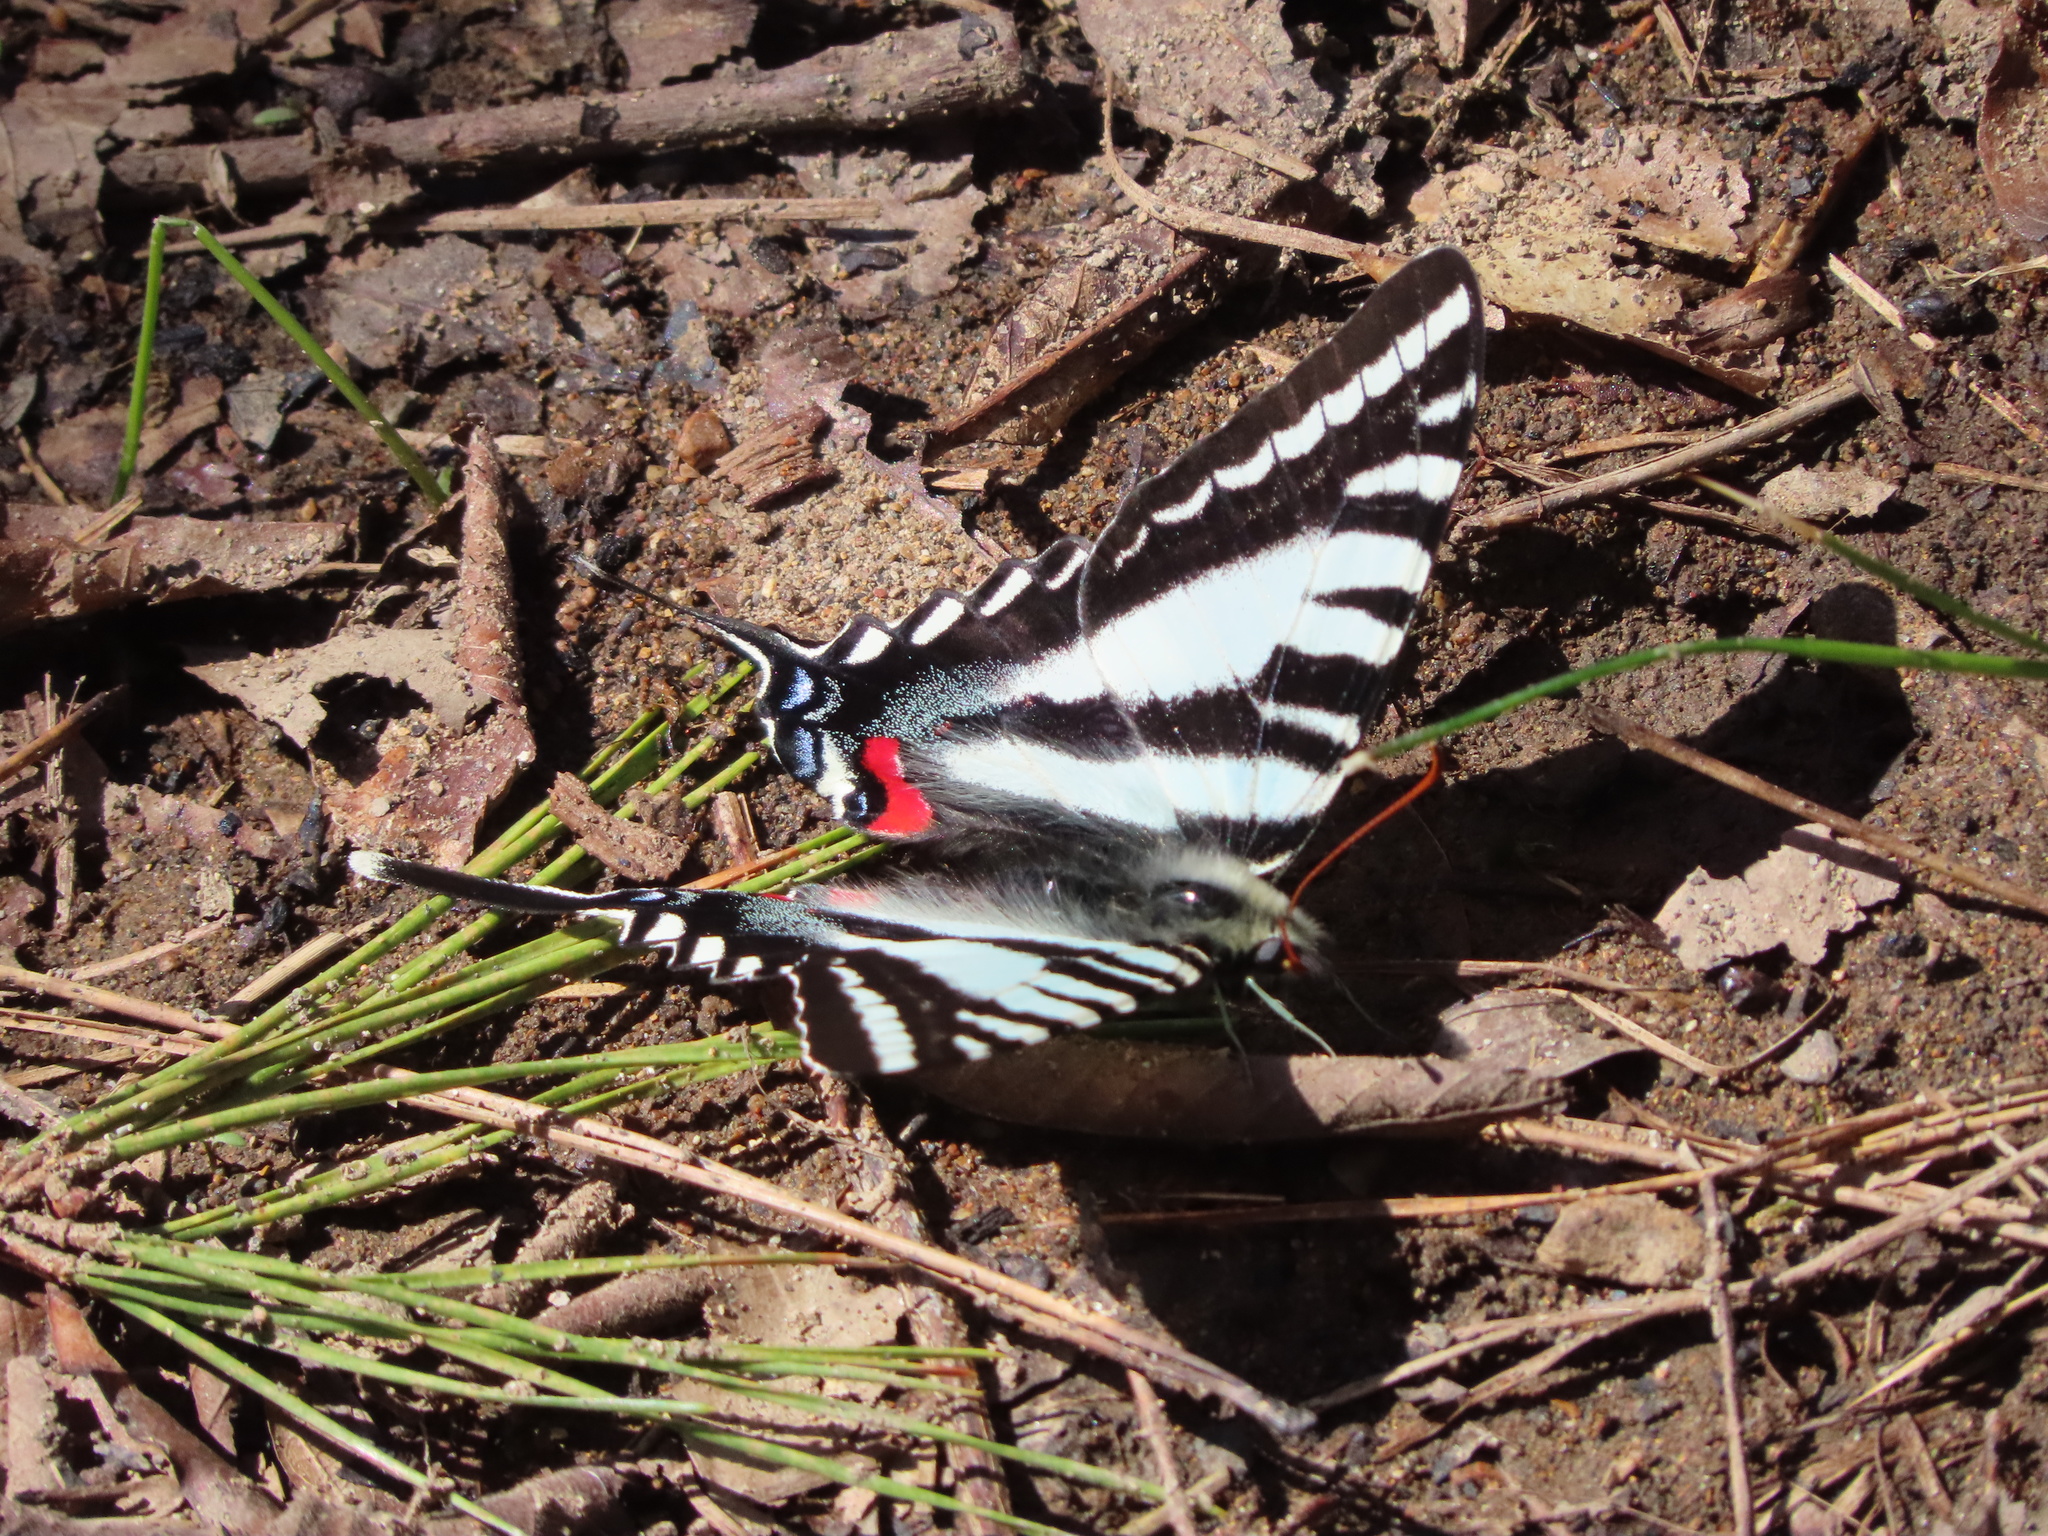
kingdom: Animalia
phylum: Arthropoda
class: Insecta
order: Lepidoptera
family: Papilionidae
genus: Protographium
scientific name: Protographium marcellus
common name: Zebra swallowtail
